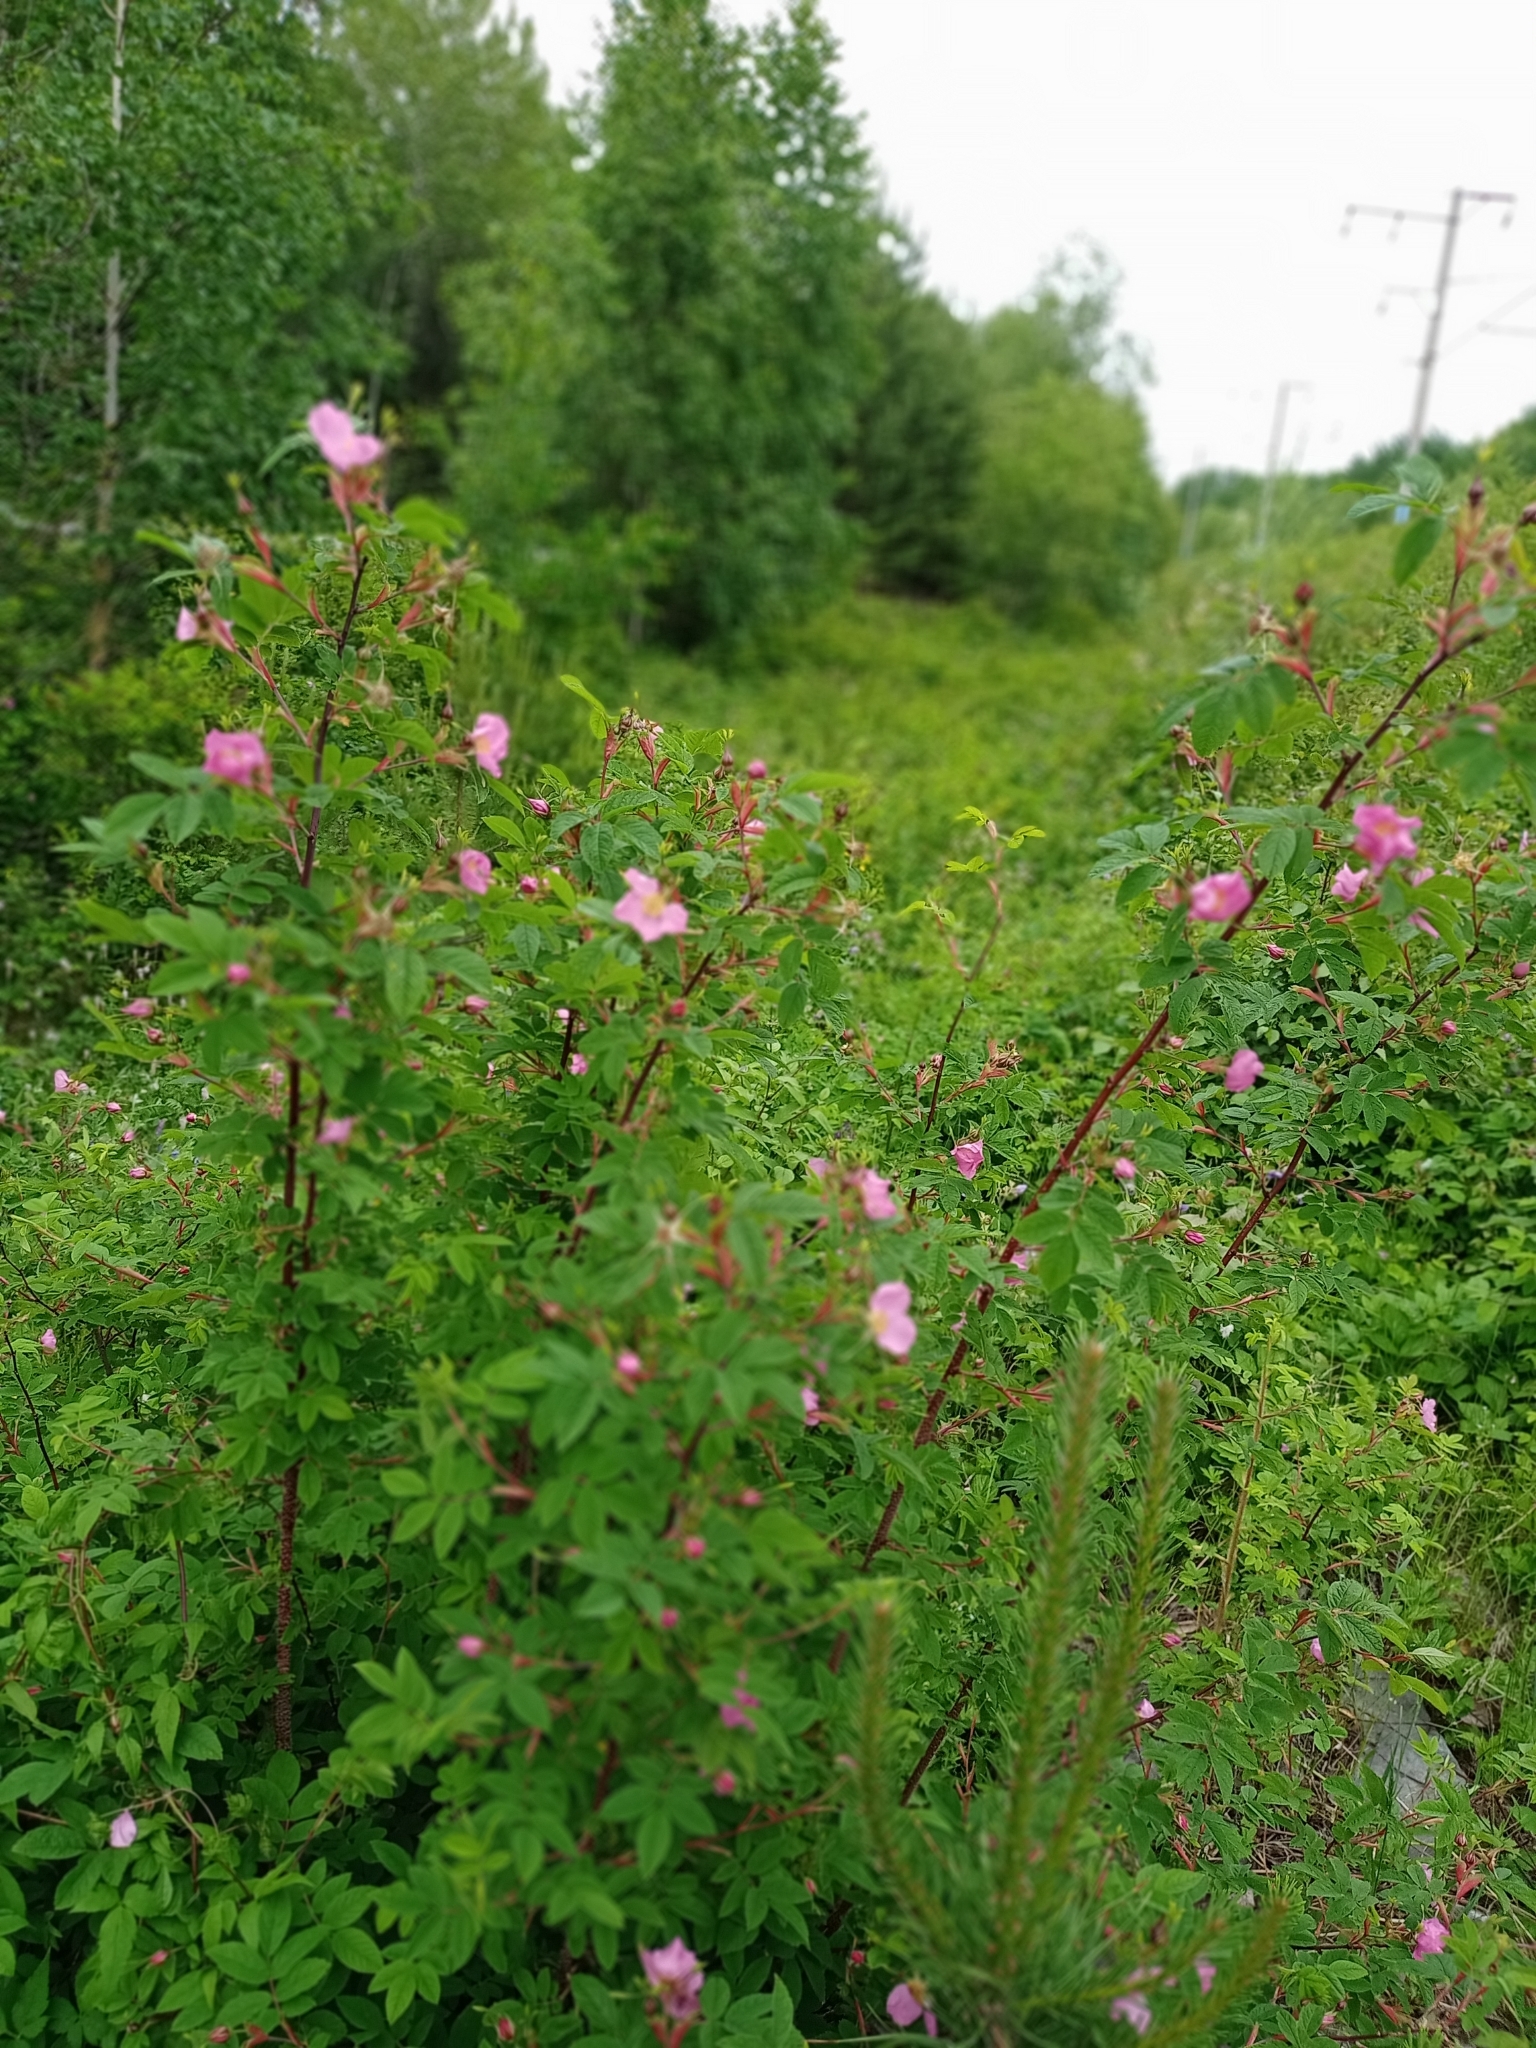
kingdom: Plantae
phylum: Tracheophyta
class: Magnoliopsida
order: Rosales
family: Rosaceae
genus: Rosa
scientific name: Rosa davurica
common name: Amur rose
